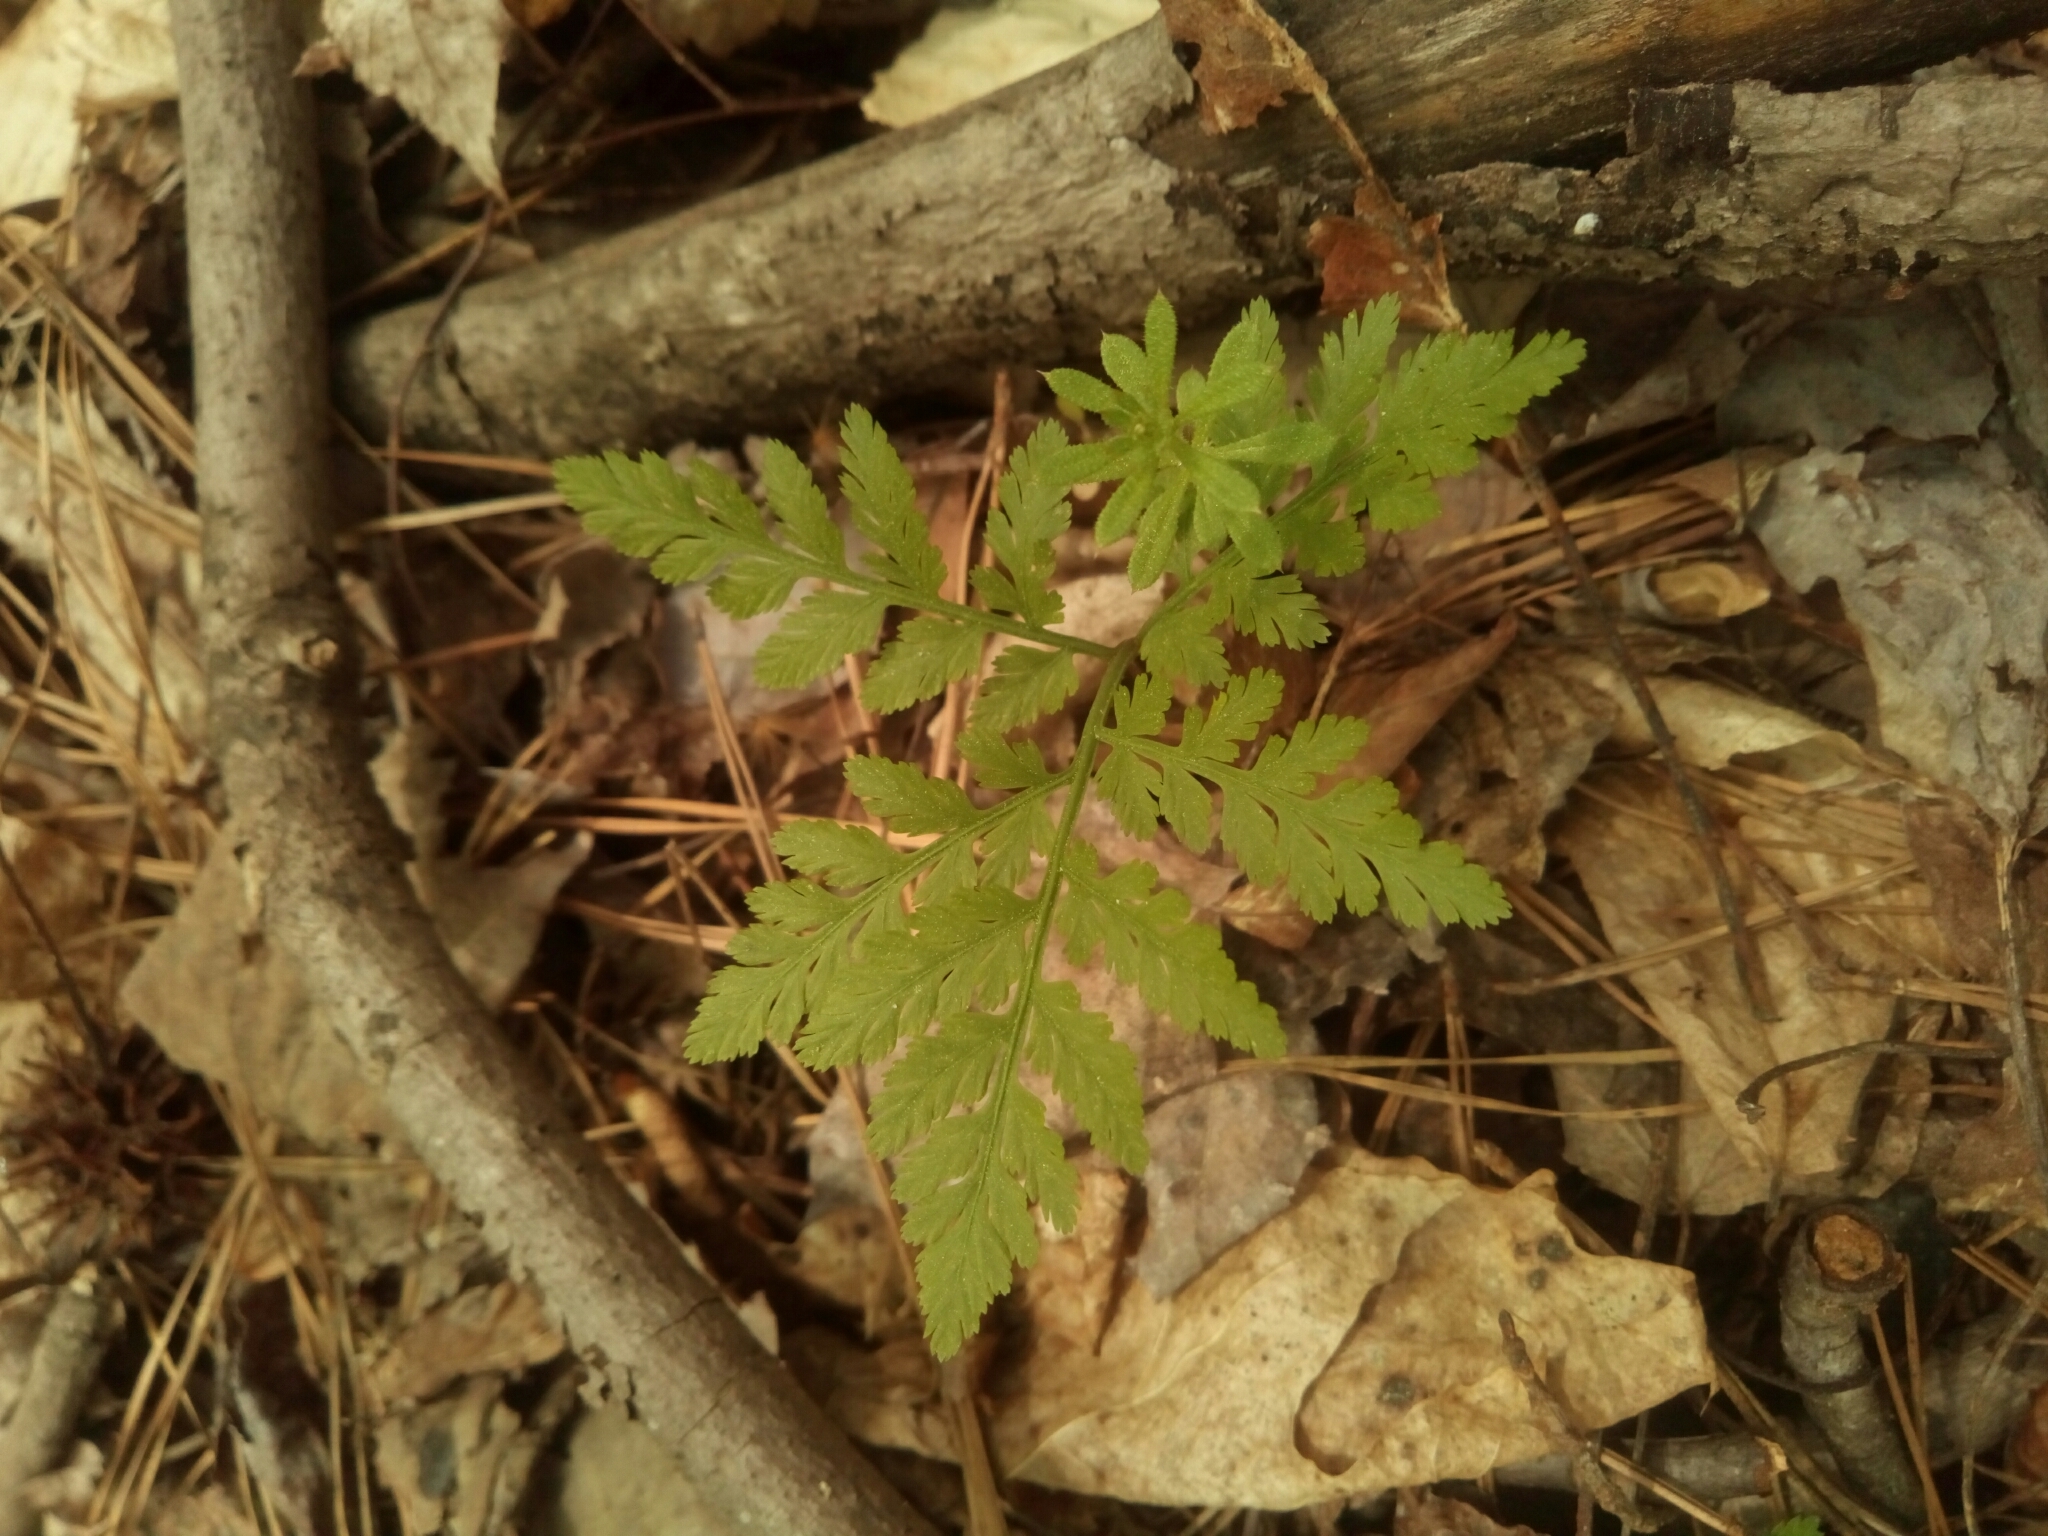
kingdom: Plantae
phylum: Tracheophyta
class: Polypodiopsida
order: Ophioglossales
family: Ophioglossaceae
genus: Botrypus
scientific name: Botrypus virginianus
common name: Common grapefern
